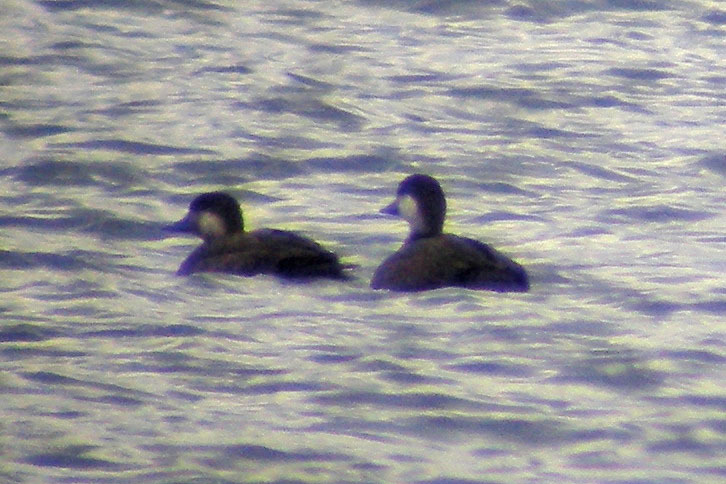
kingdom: Animalia
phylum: Chordata
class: Aves
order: Anseriformes
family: Anatidae
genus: Melanitta
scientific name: Melanitta americana
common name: Black scoter
